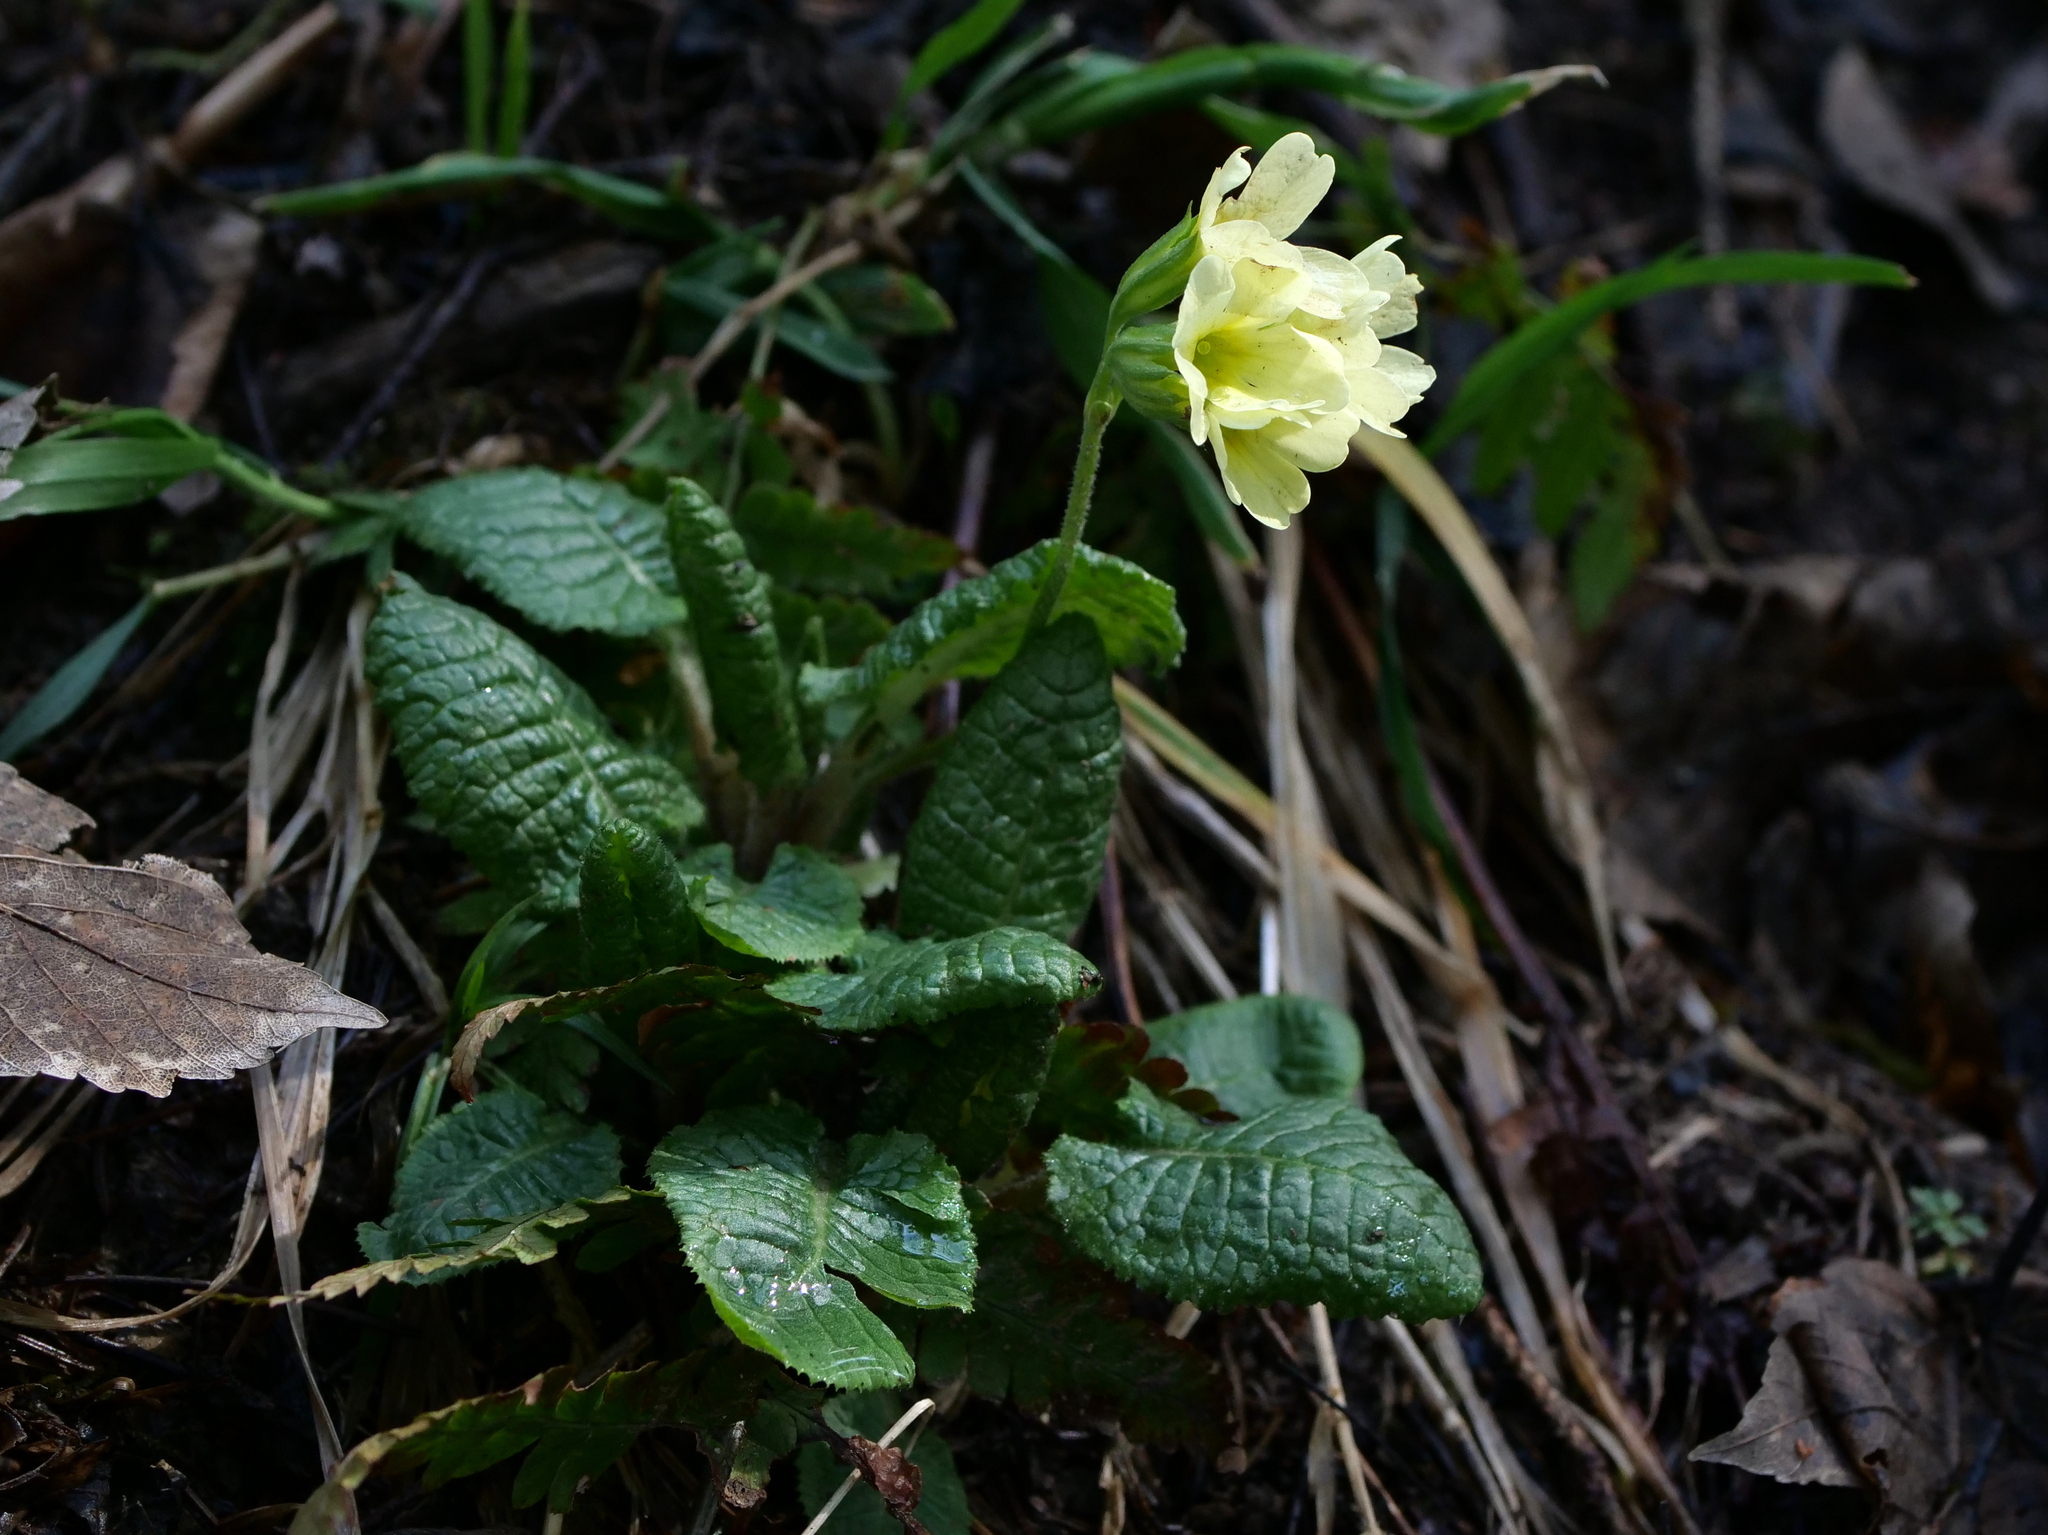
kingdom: Plantae
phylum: Tracheophyta
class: Magnoliopsida
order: Ericales
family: Primulaceae
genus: Primula
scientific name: Primula elatior
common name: Oxlip
